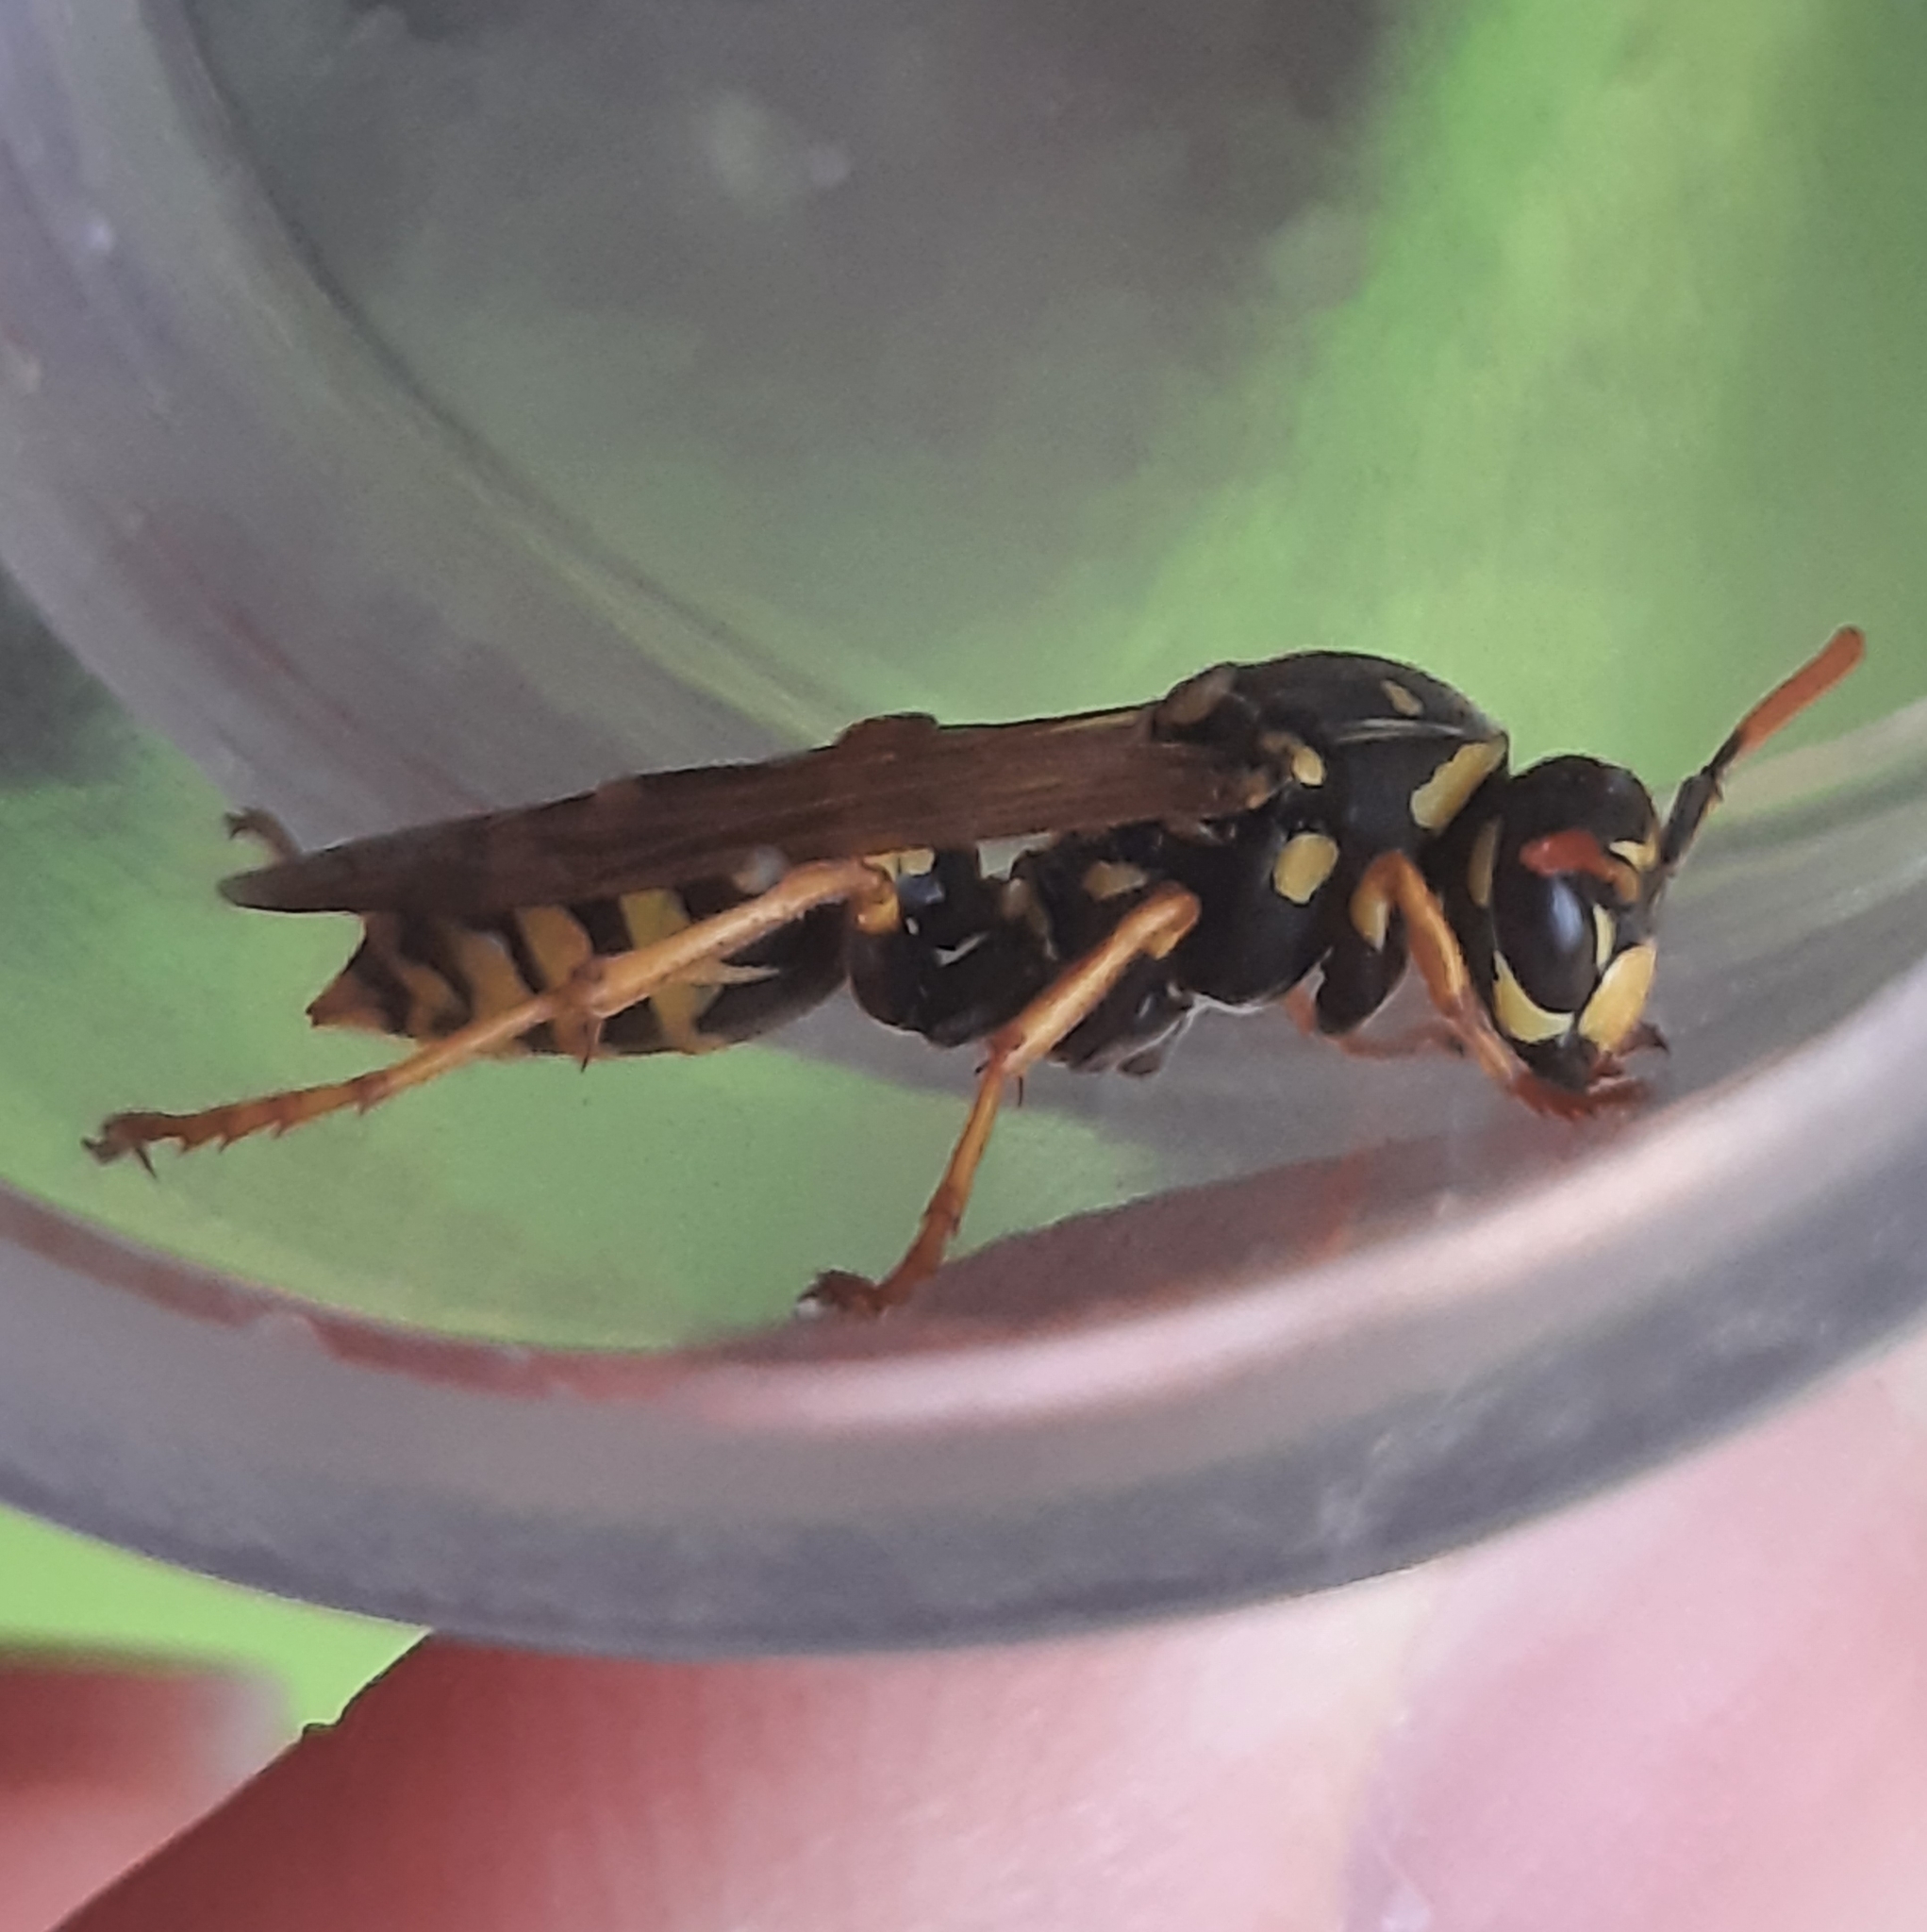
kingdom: Animalia
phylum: Arthropoda
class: Insecta
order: Hymenoptera
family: Eumenidae
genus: Polistes
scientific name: Polistes dominula
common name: Paper wasp
